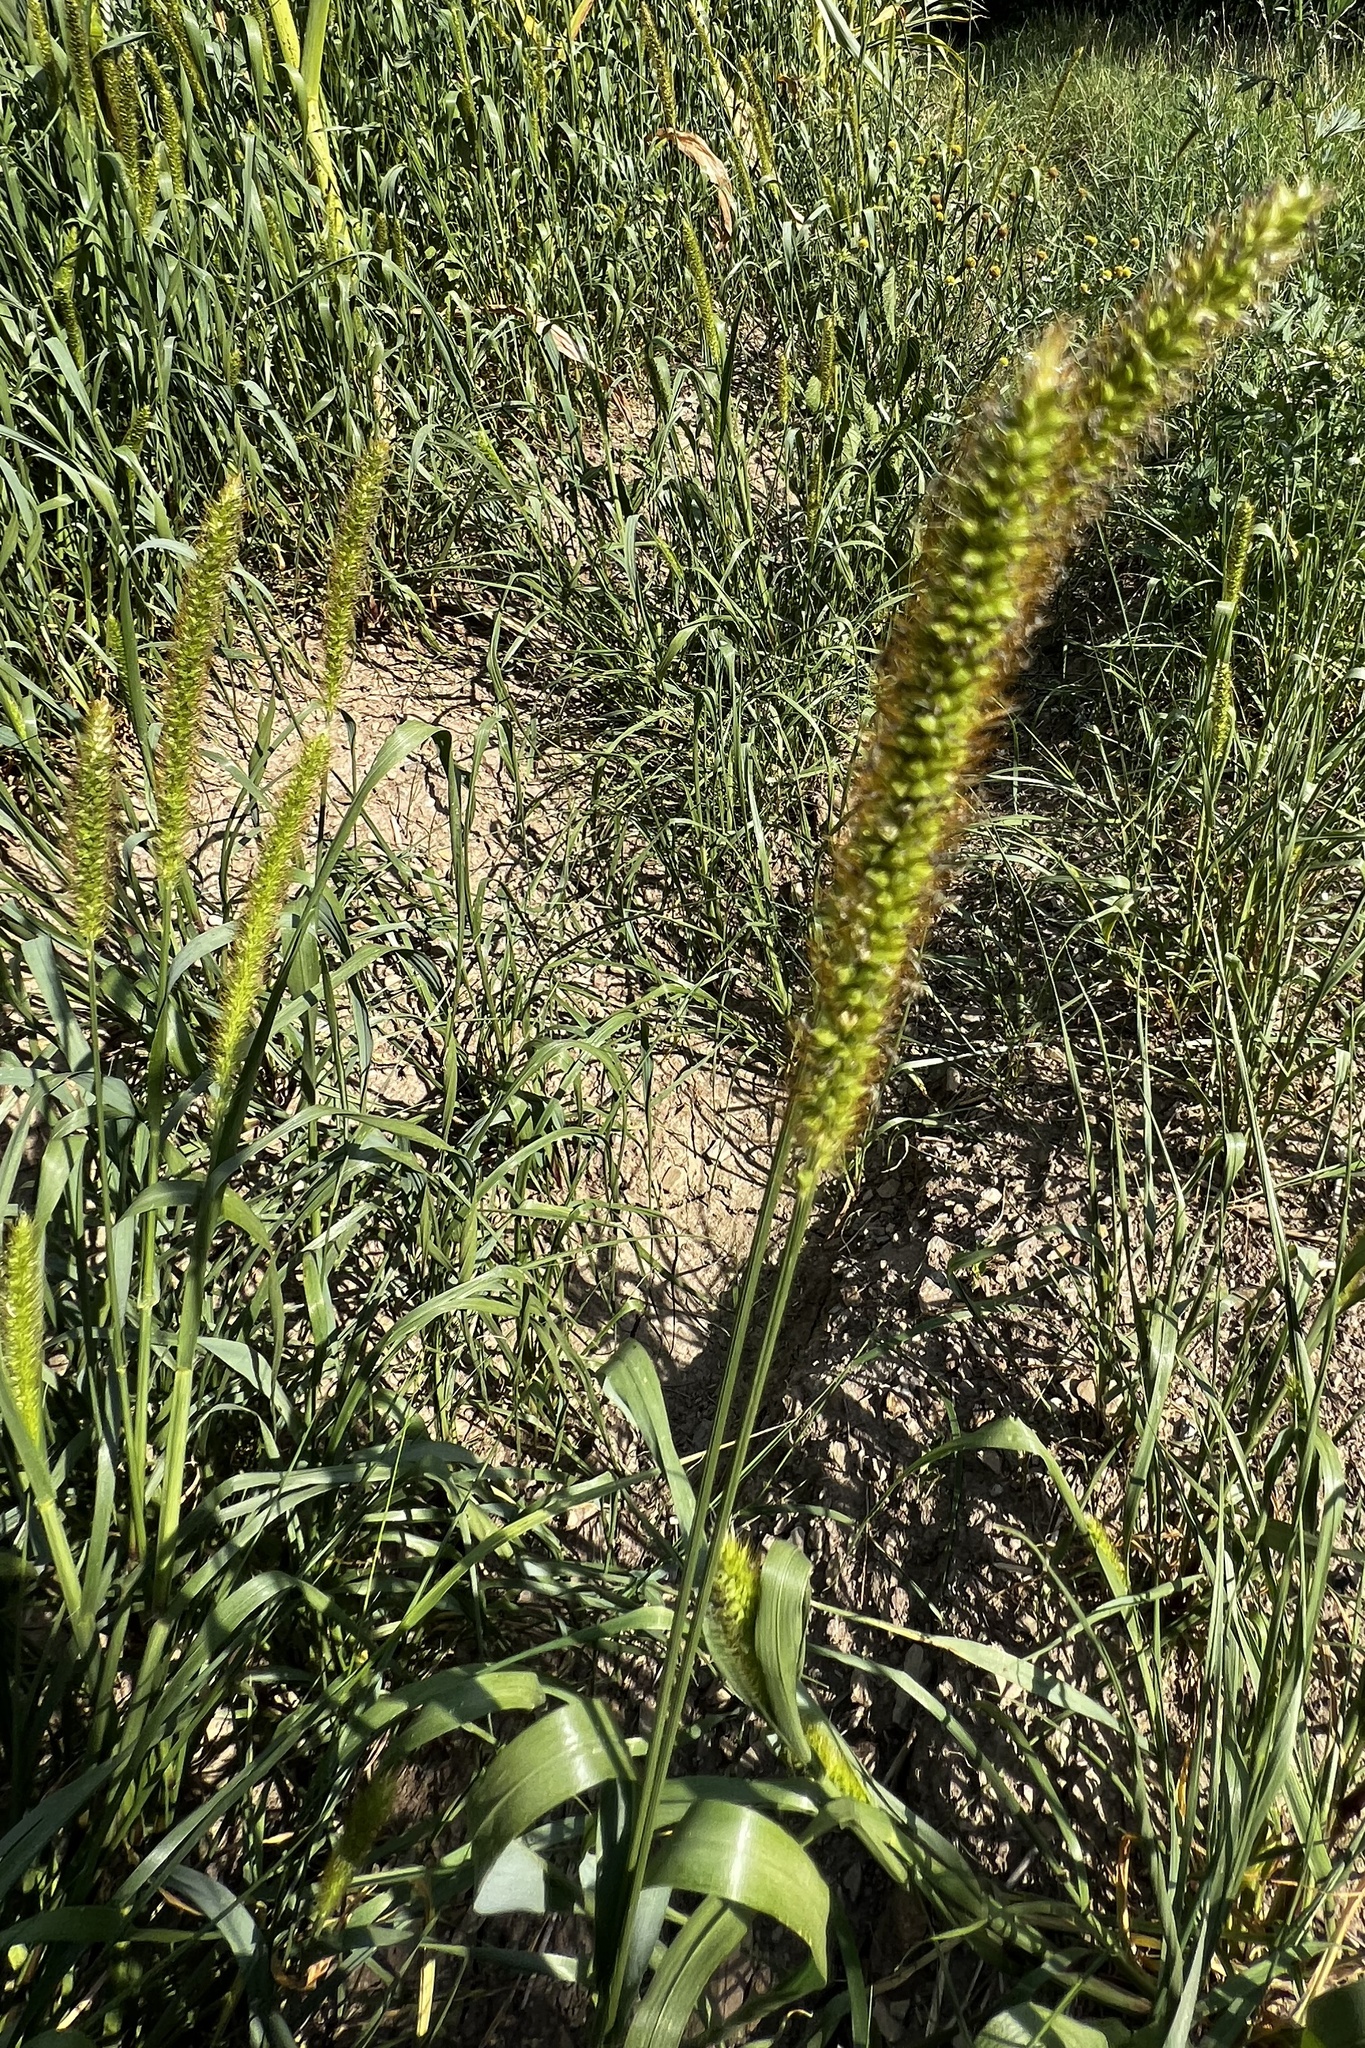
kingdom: Plantae
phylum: Tracheophyta
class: Liliopsida
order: Poales
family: Poaceae
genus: Setaria
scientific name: Setaria pumila
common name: Yellow bristle-grass
